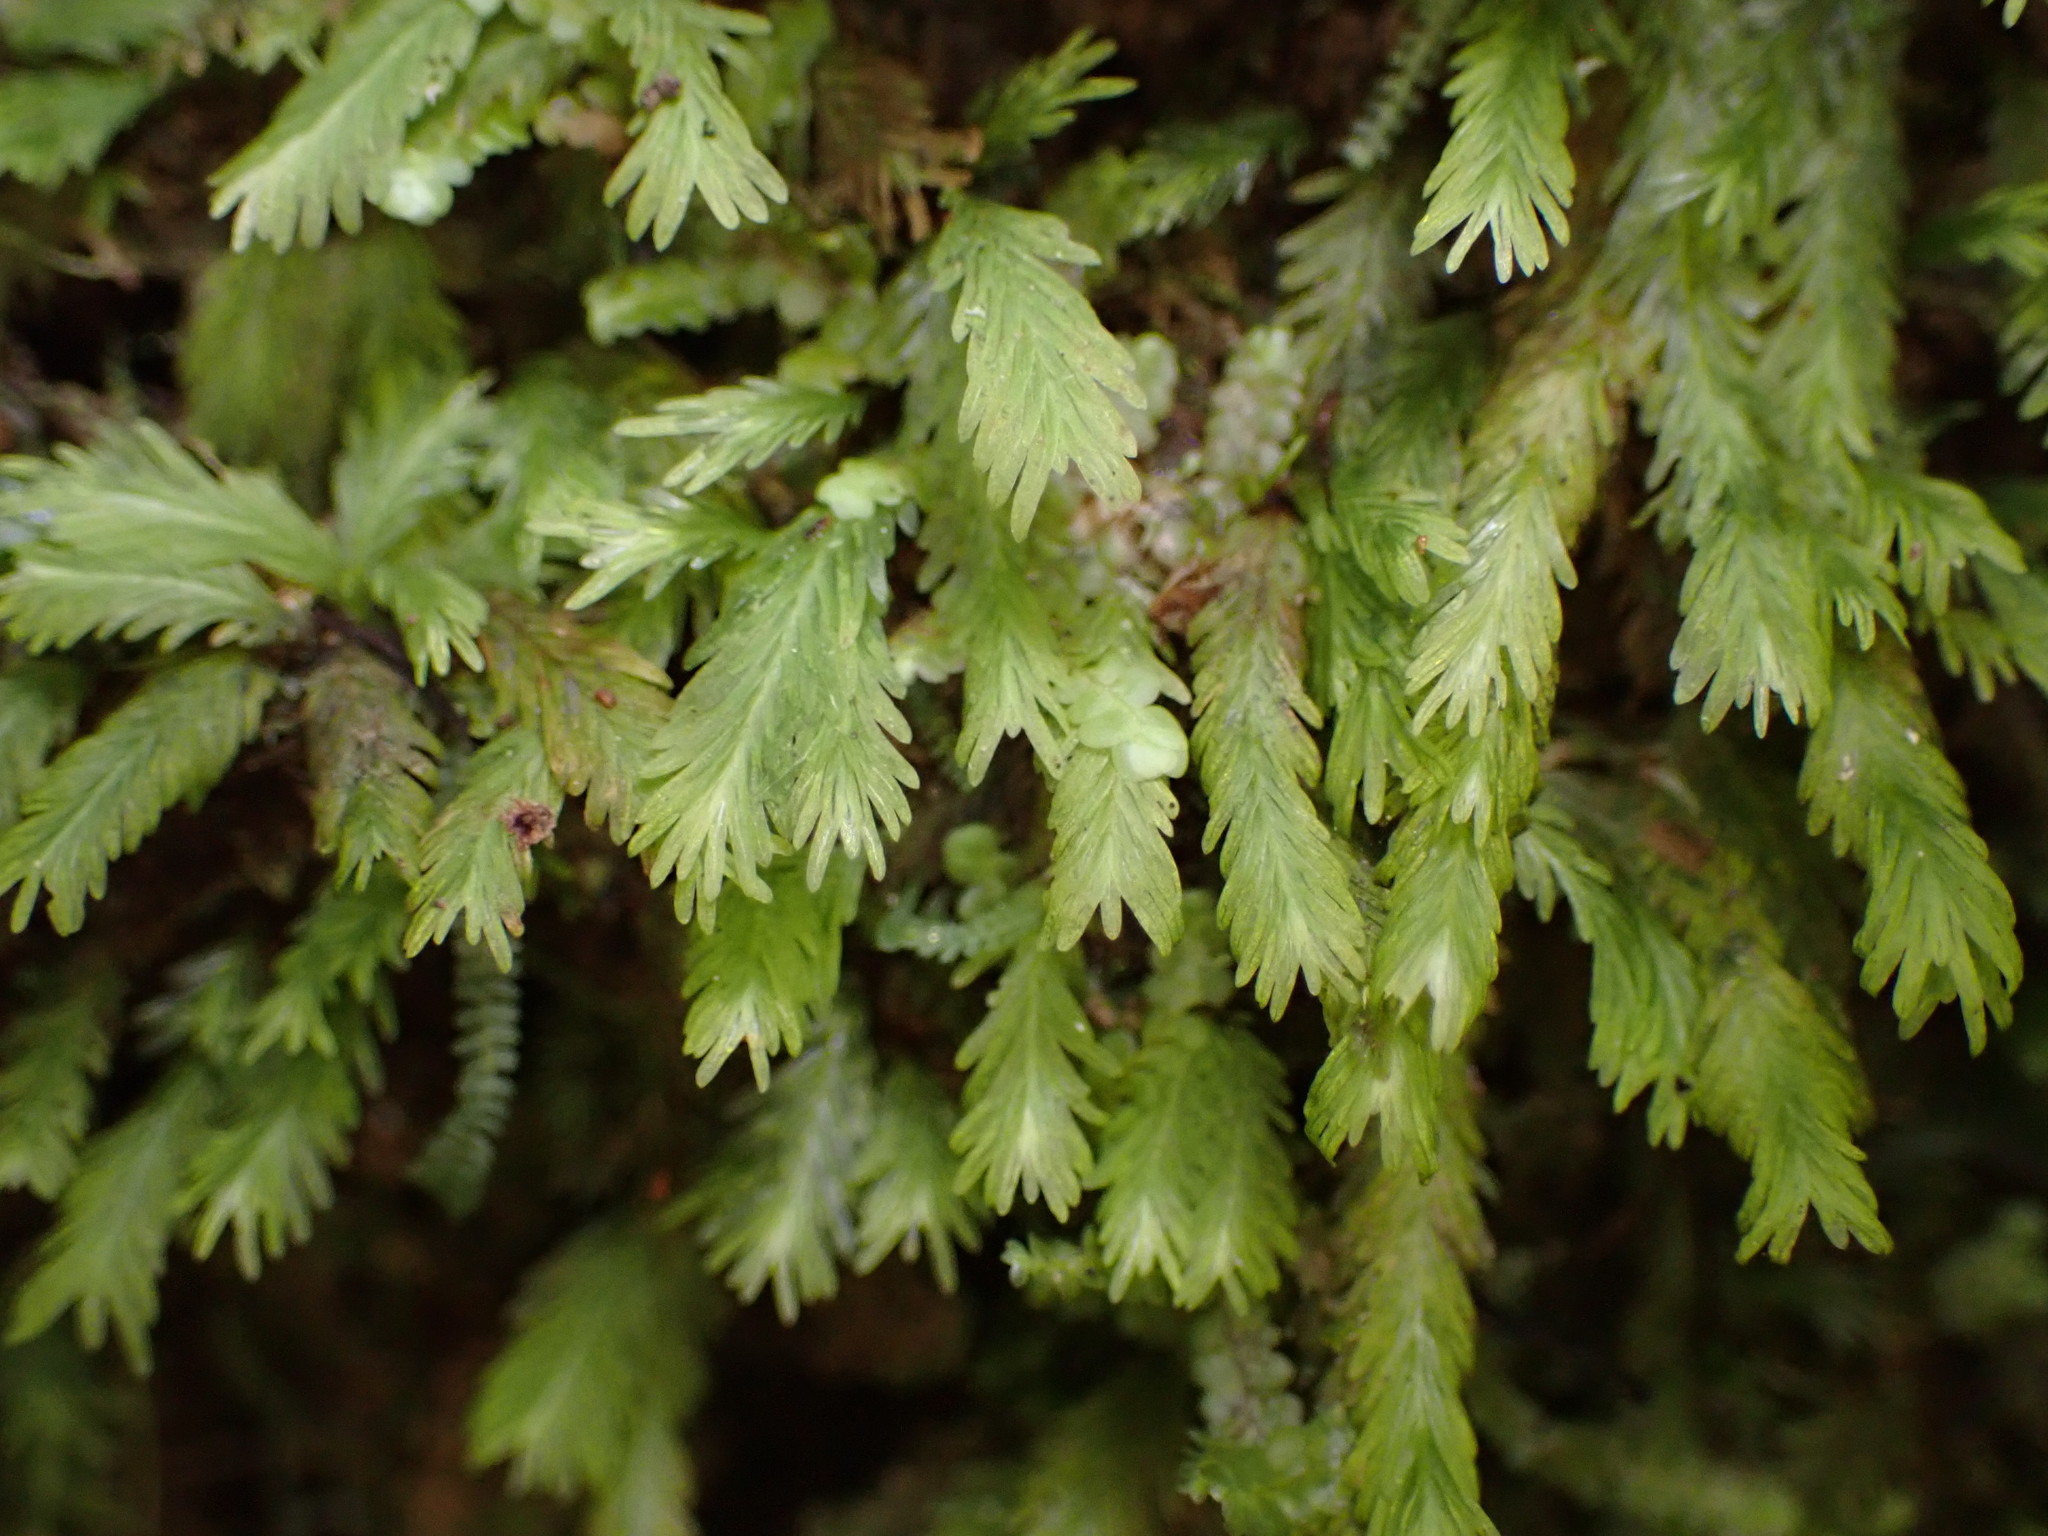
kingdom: Plantae
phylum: Bryophyta
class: Bryopsida
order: Dicranales
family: Fissidentaceae
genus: Fissidens
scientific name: Fissidens asplenioides
